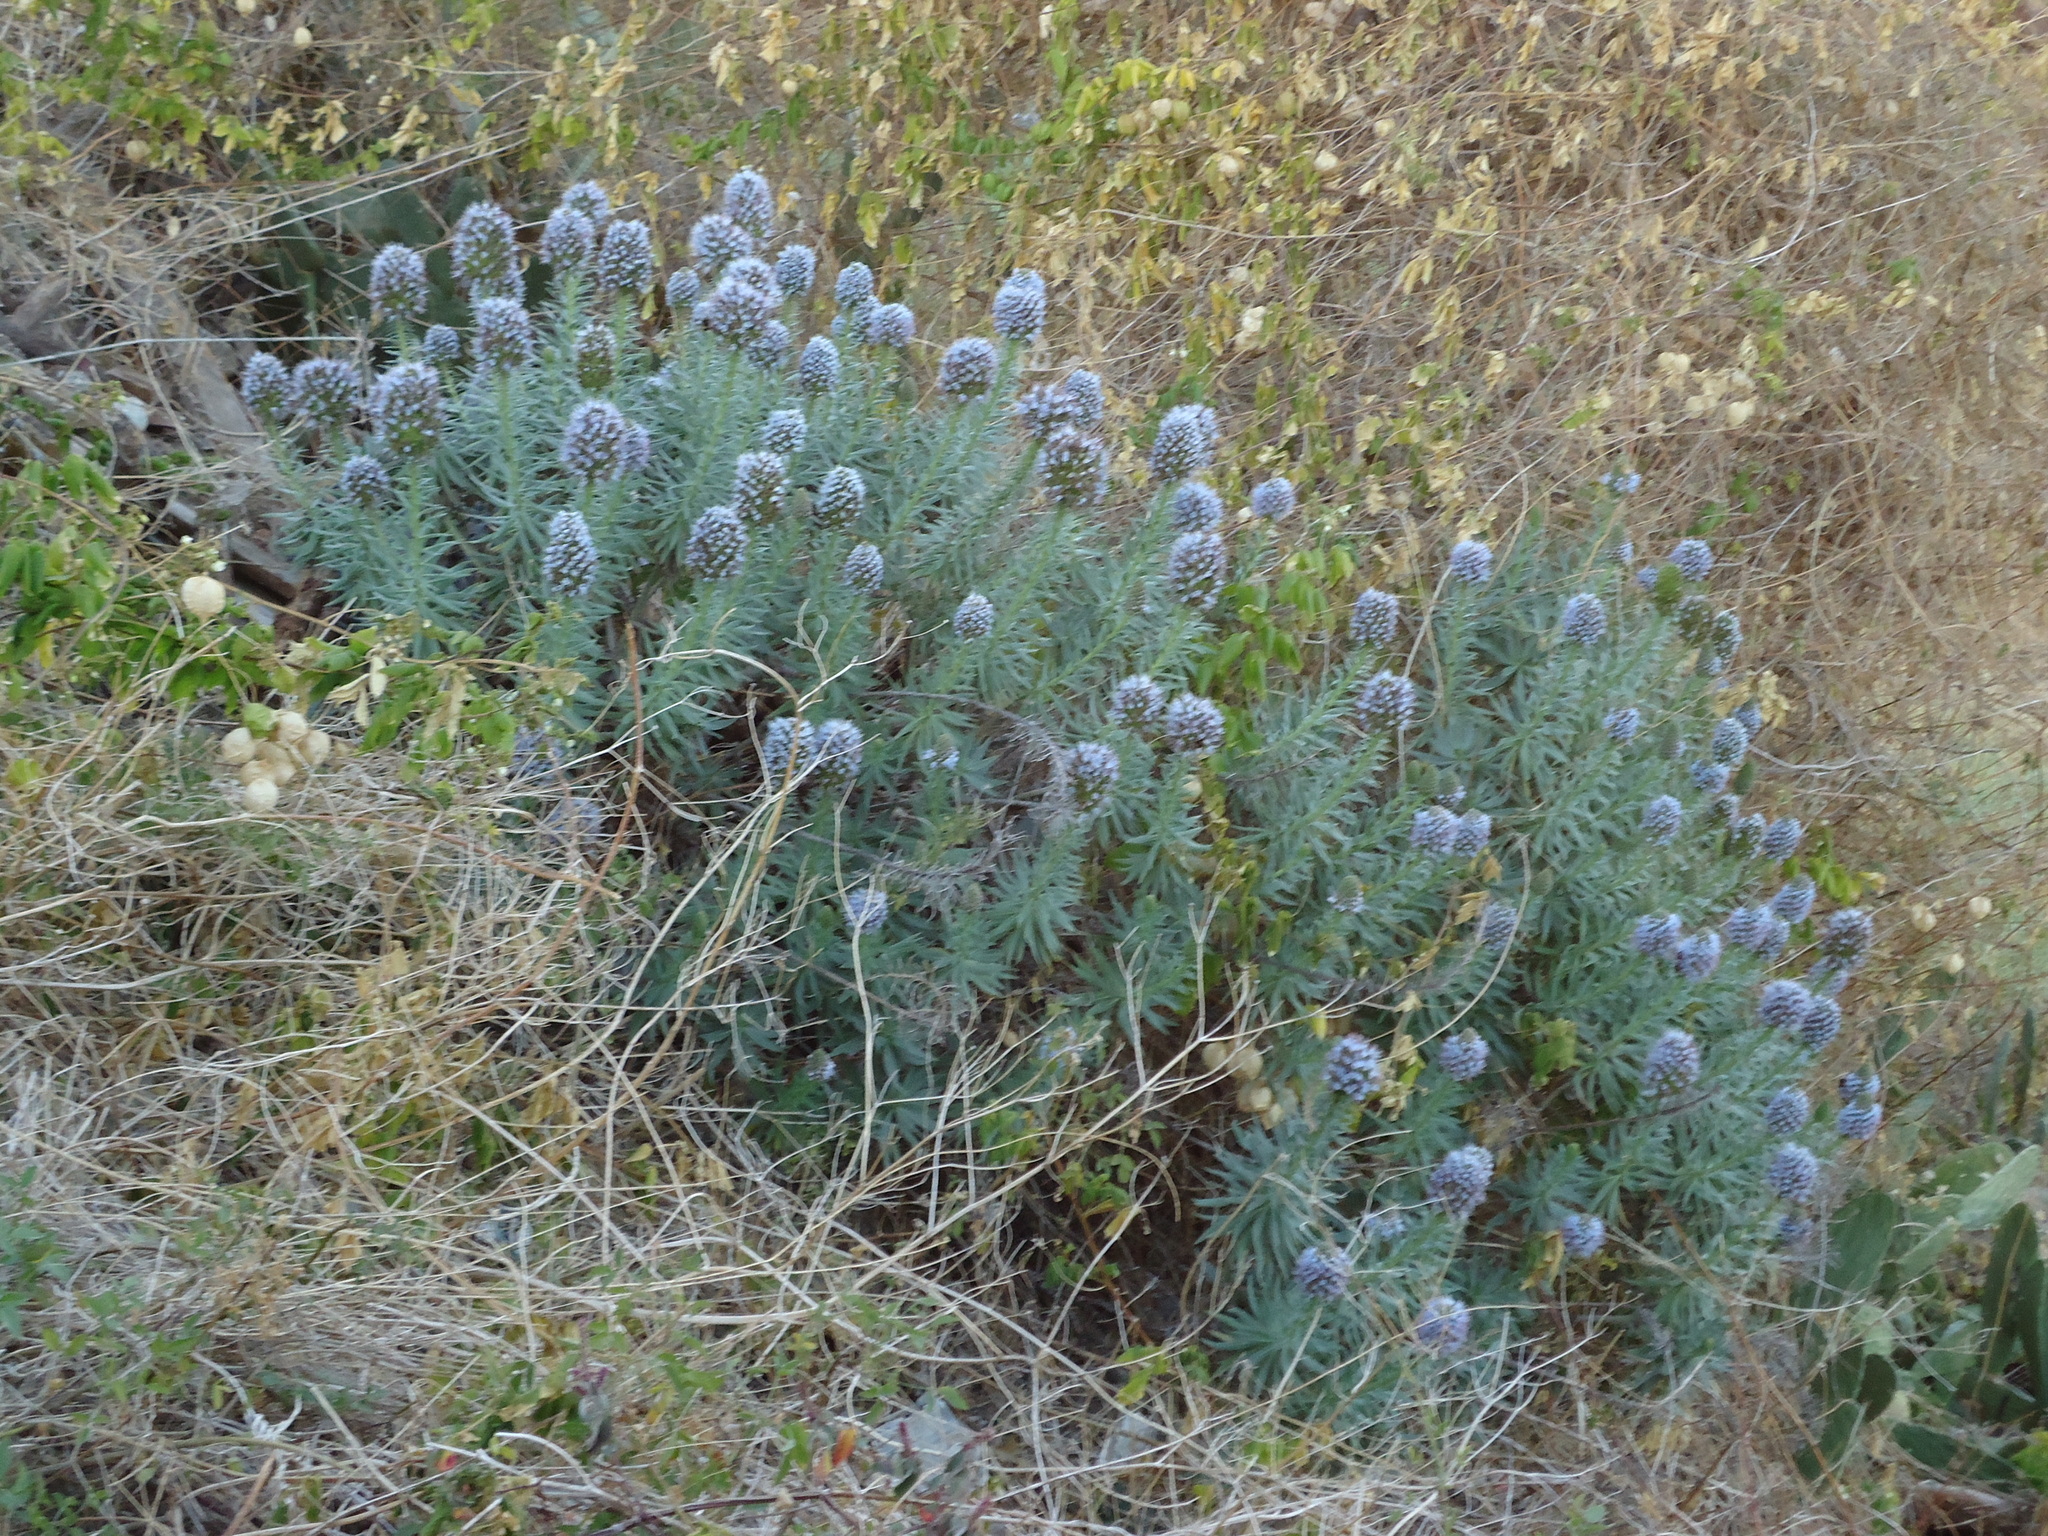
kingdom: Plantae
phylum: Tracheophyta
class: Magnoliopsida
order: Boraginales
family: Boraginaceae
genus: Echium
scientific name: Echium nervosum
